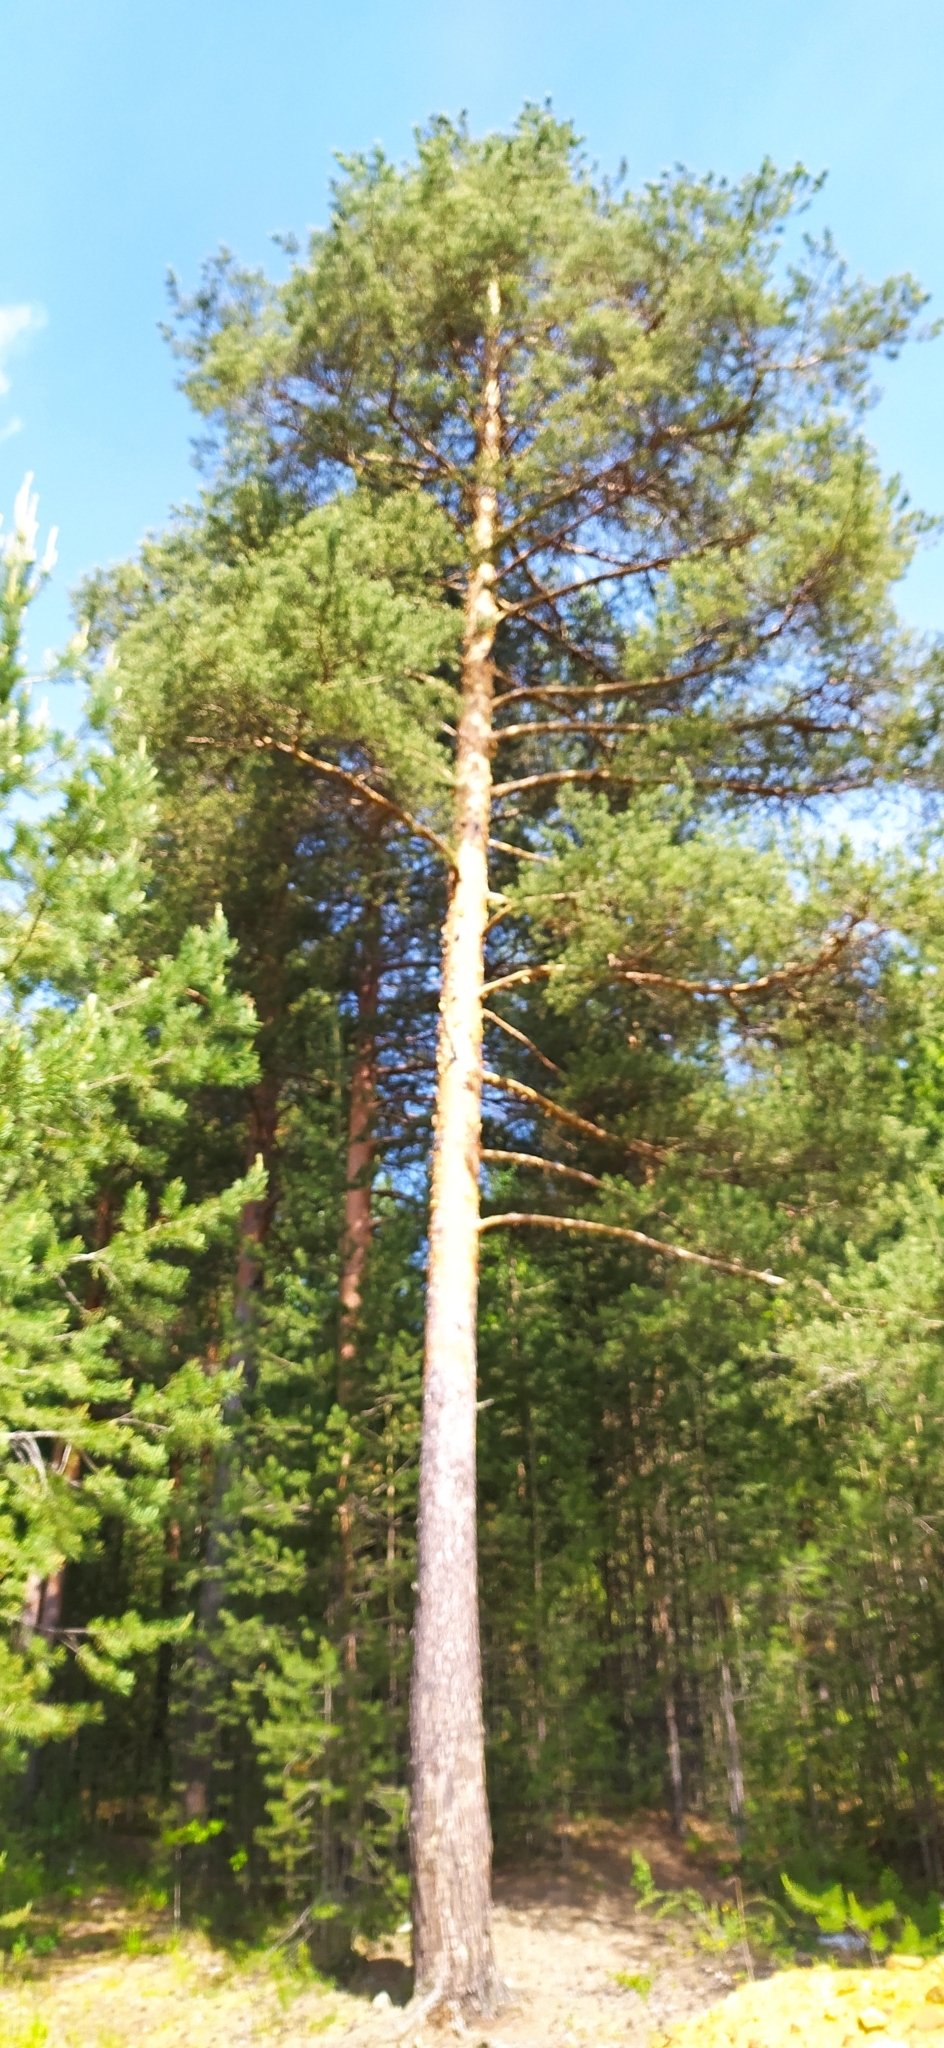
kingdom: Plantae
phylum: Tracheophyta
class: Pinopsida
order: Pinales
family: Pinaceae
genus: Pinus
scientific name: Pinus sylvestris
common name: Scots pine
